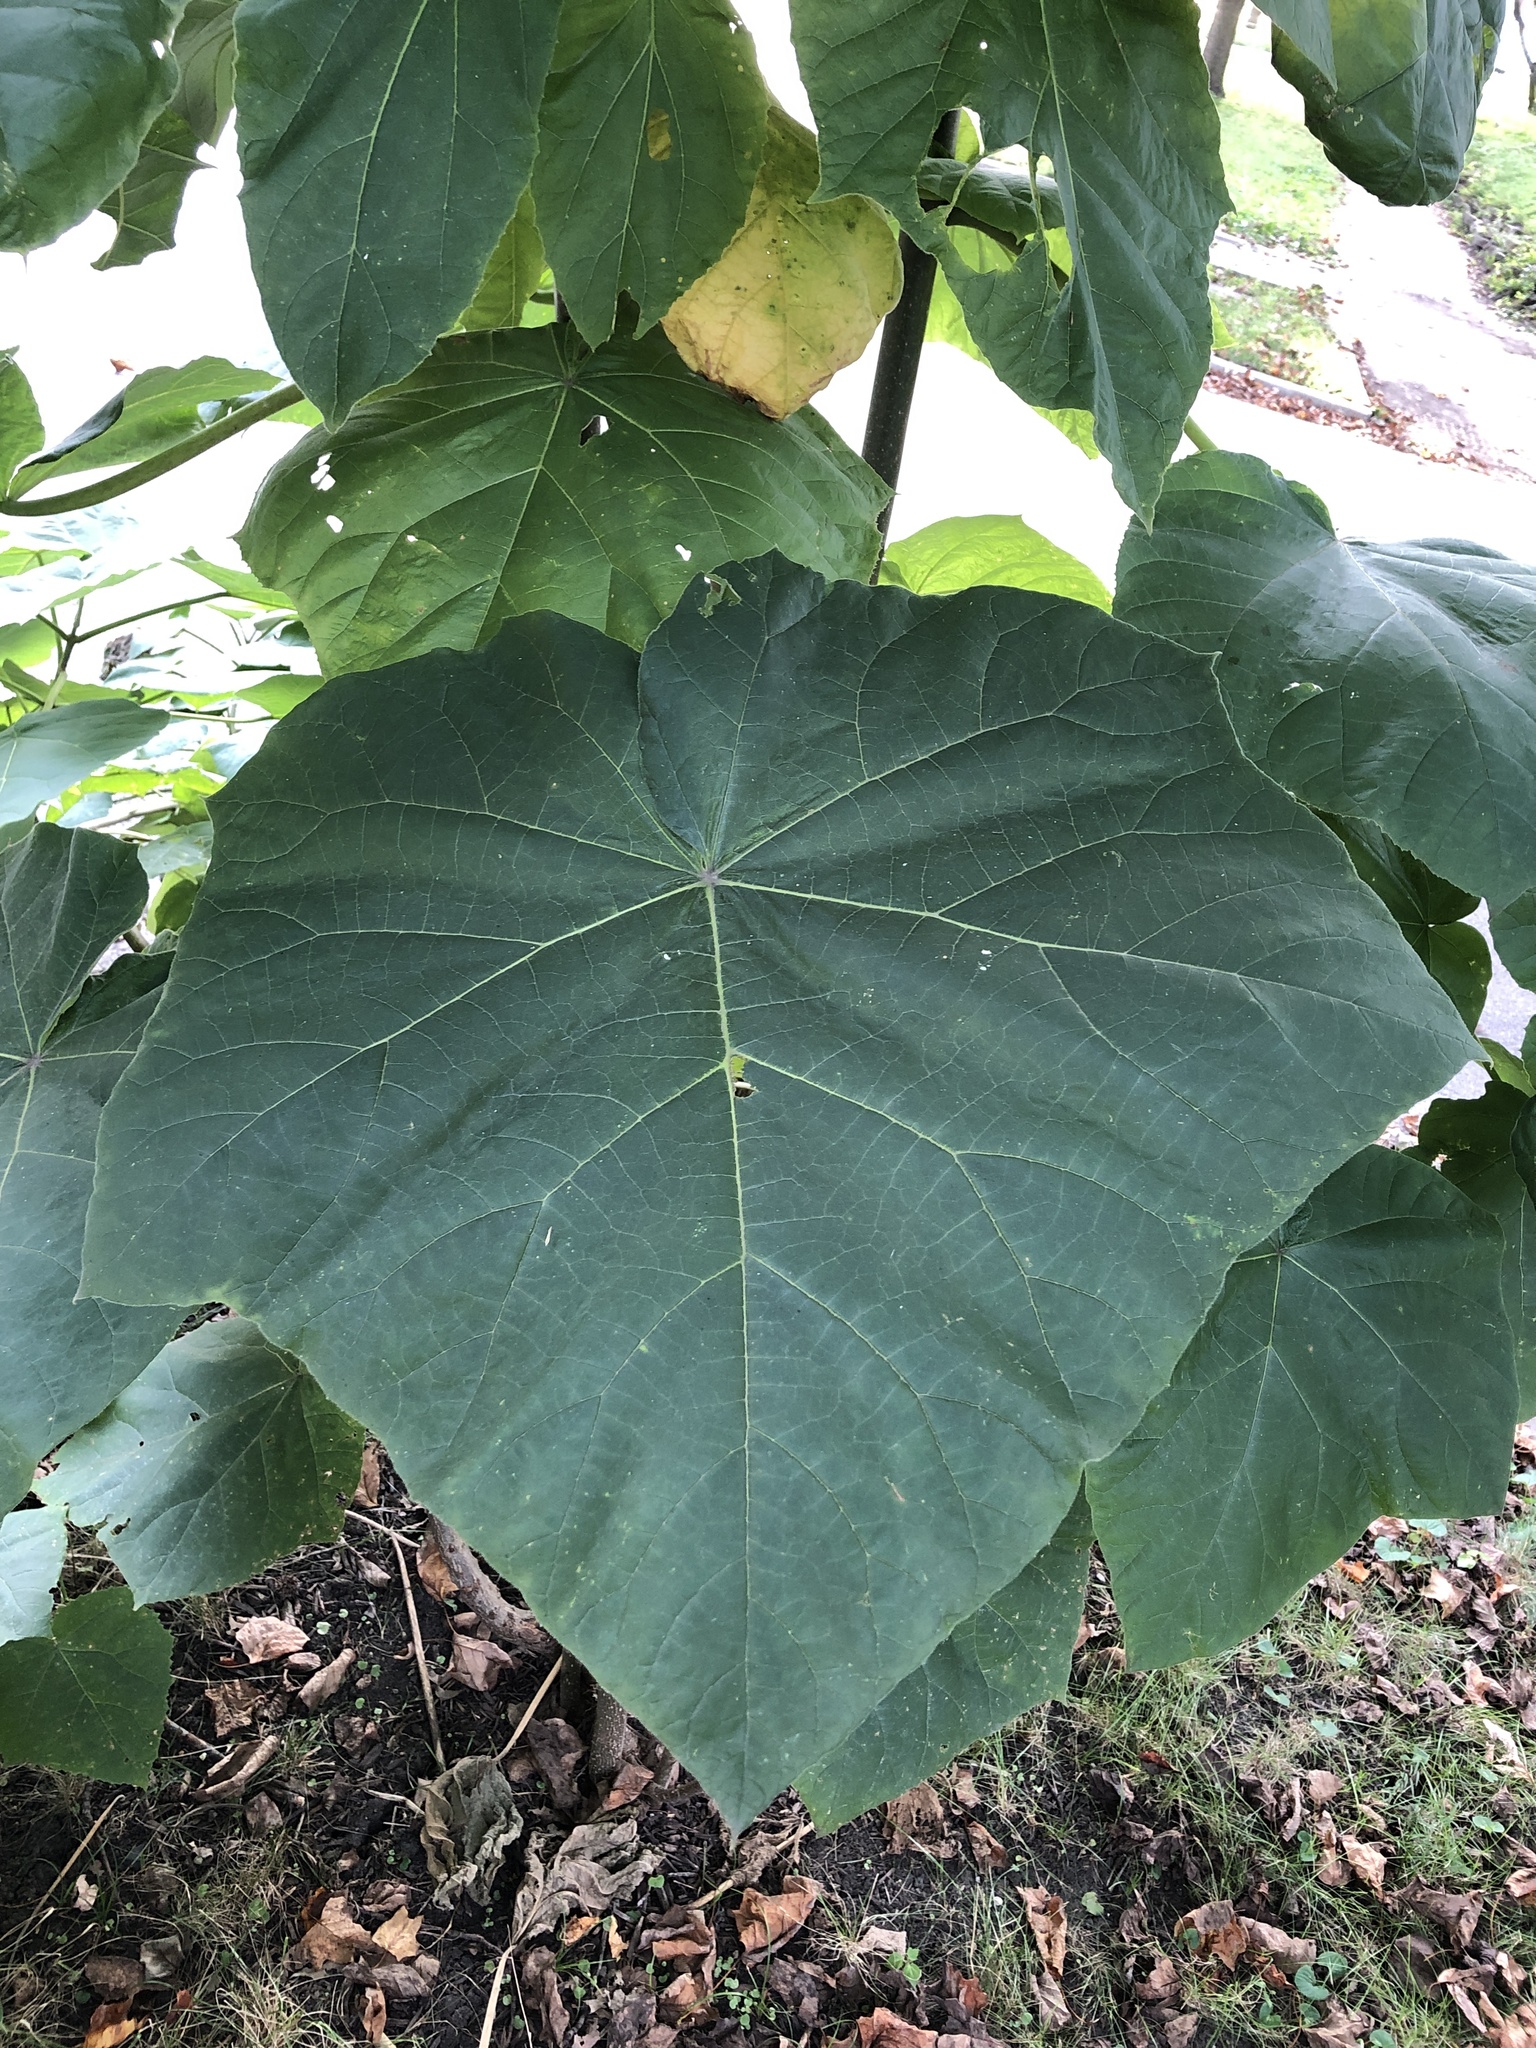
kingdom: Plantae
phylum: Tracheophyta
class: Magnoliopsida
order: Lamiales
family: Paulowniaceae
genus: Paulownia
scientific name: Paulownia tomentosa
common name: Foxglove-tree
